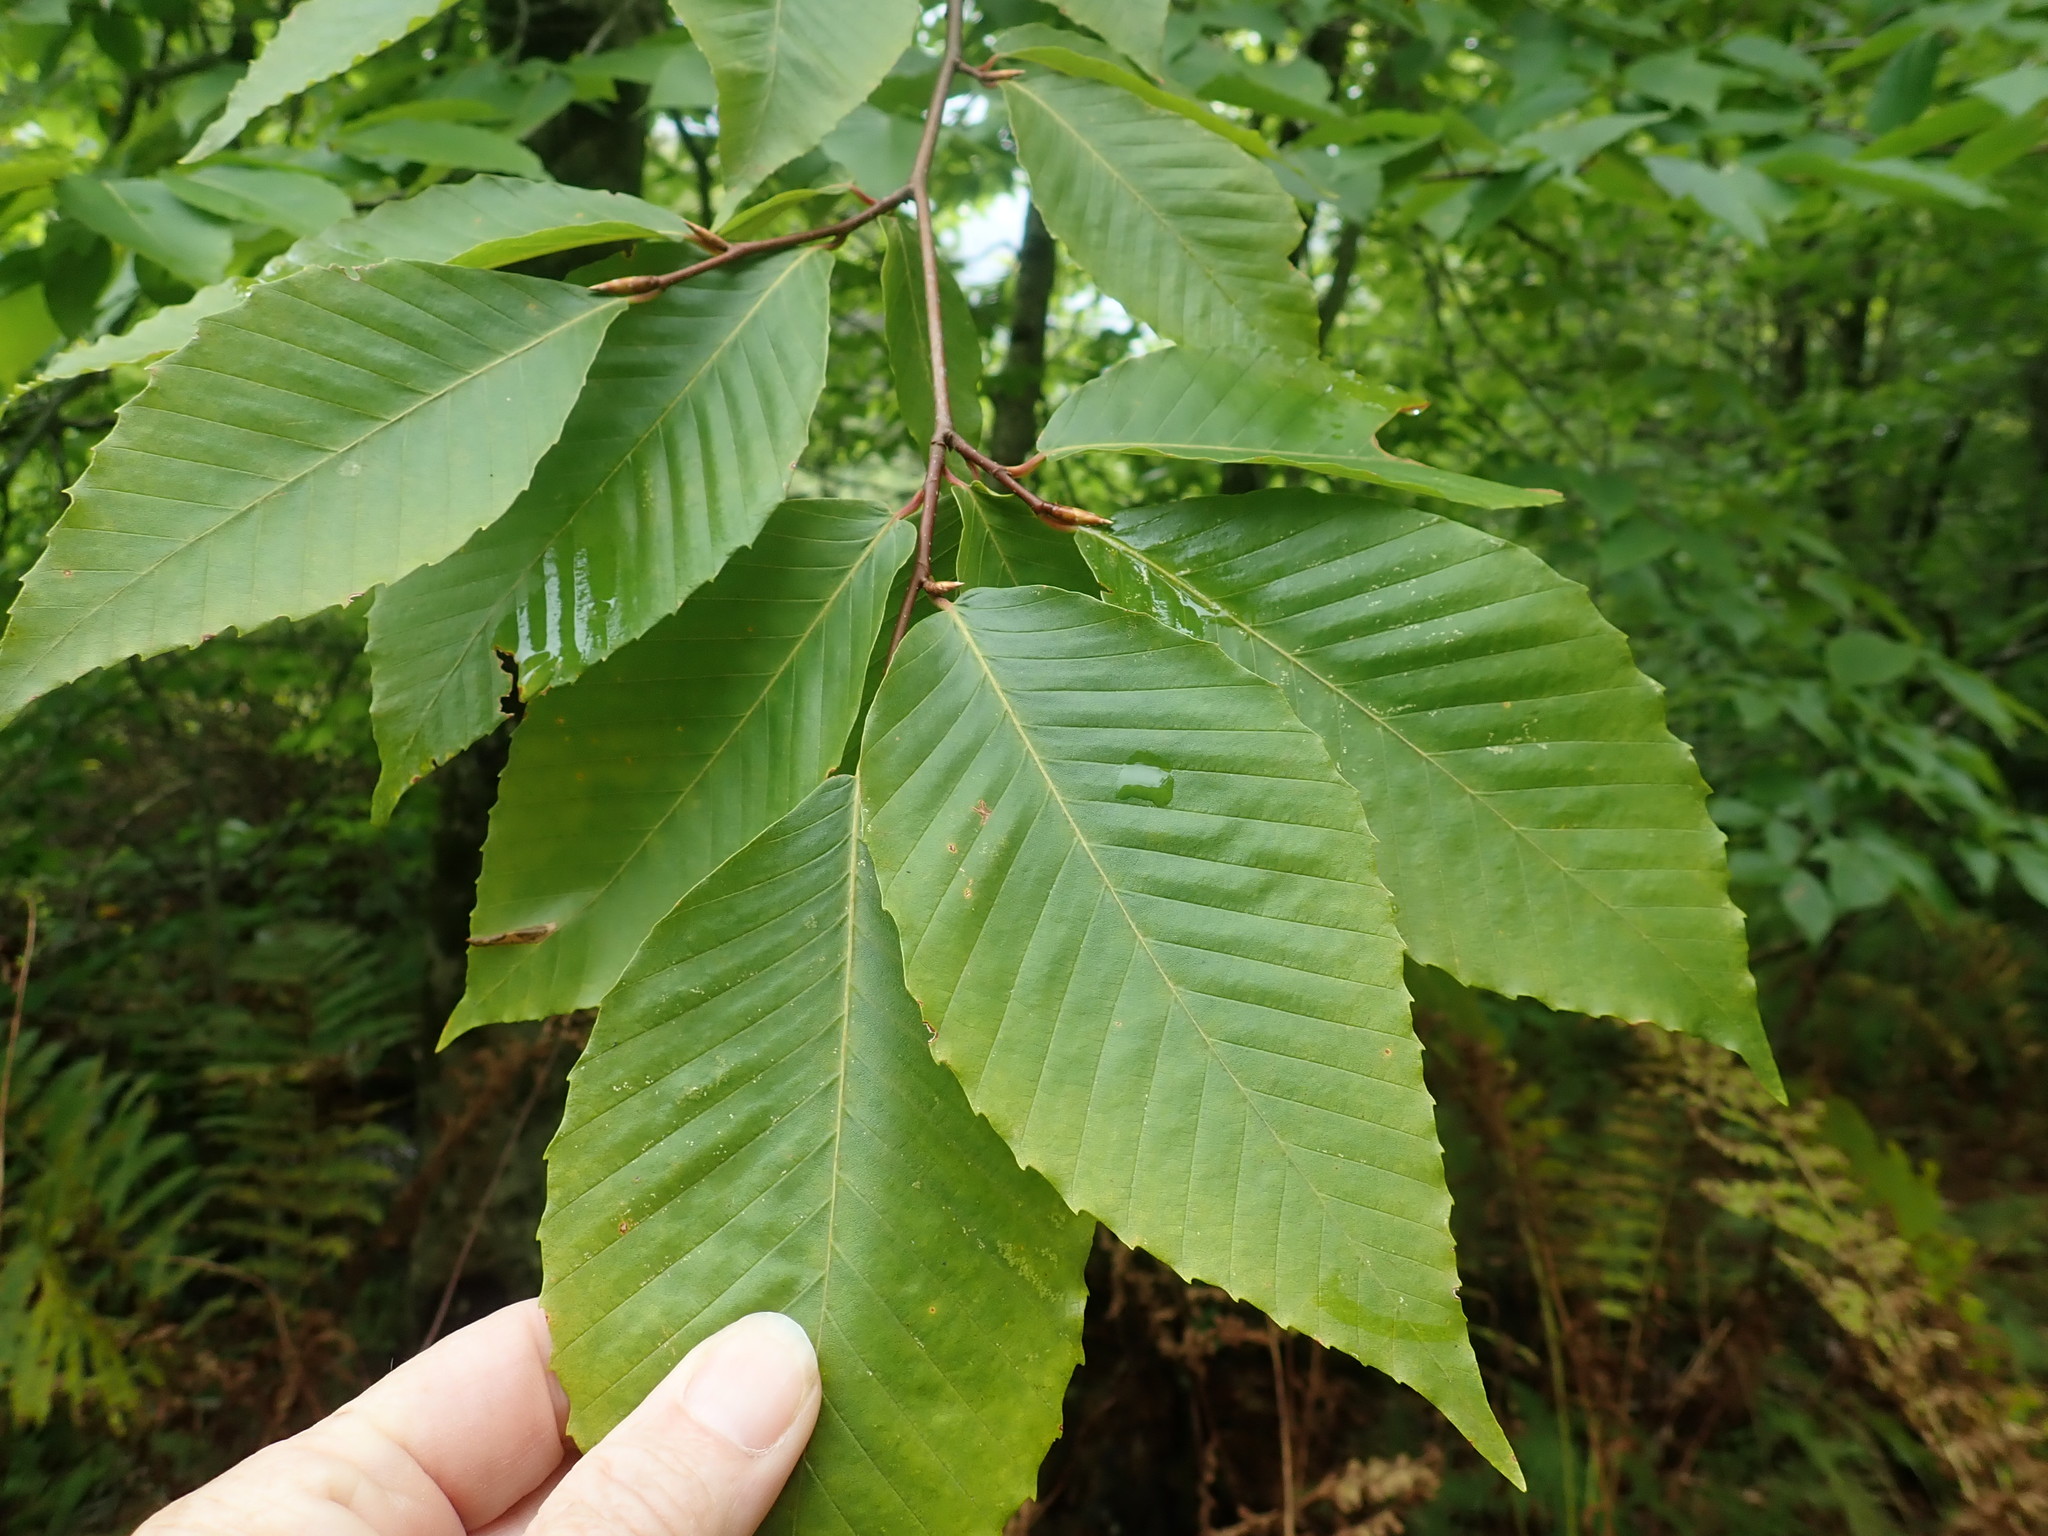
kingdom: Plantae
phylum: Tracheophyta
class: Magnoliopsida
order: Fagales
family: Fagaceae
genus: Fagus
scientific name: Fagus grandifolia
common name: American beech
